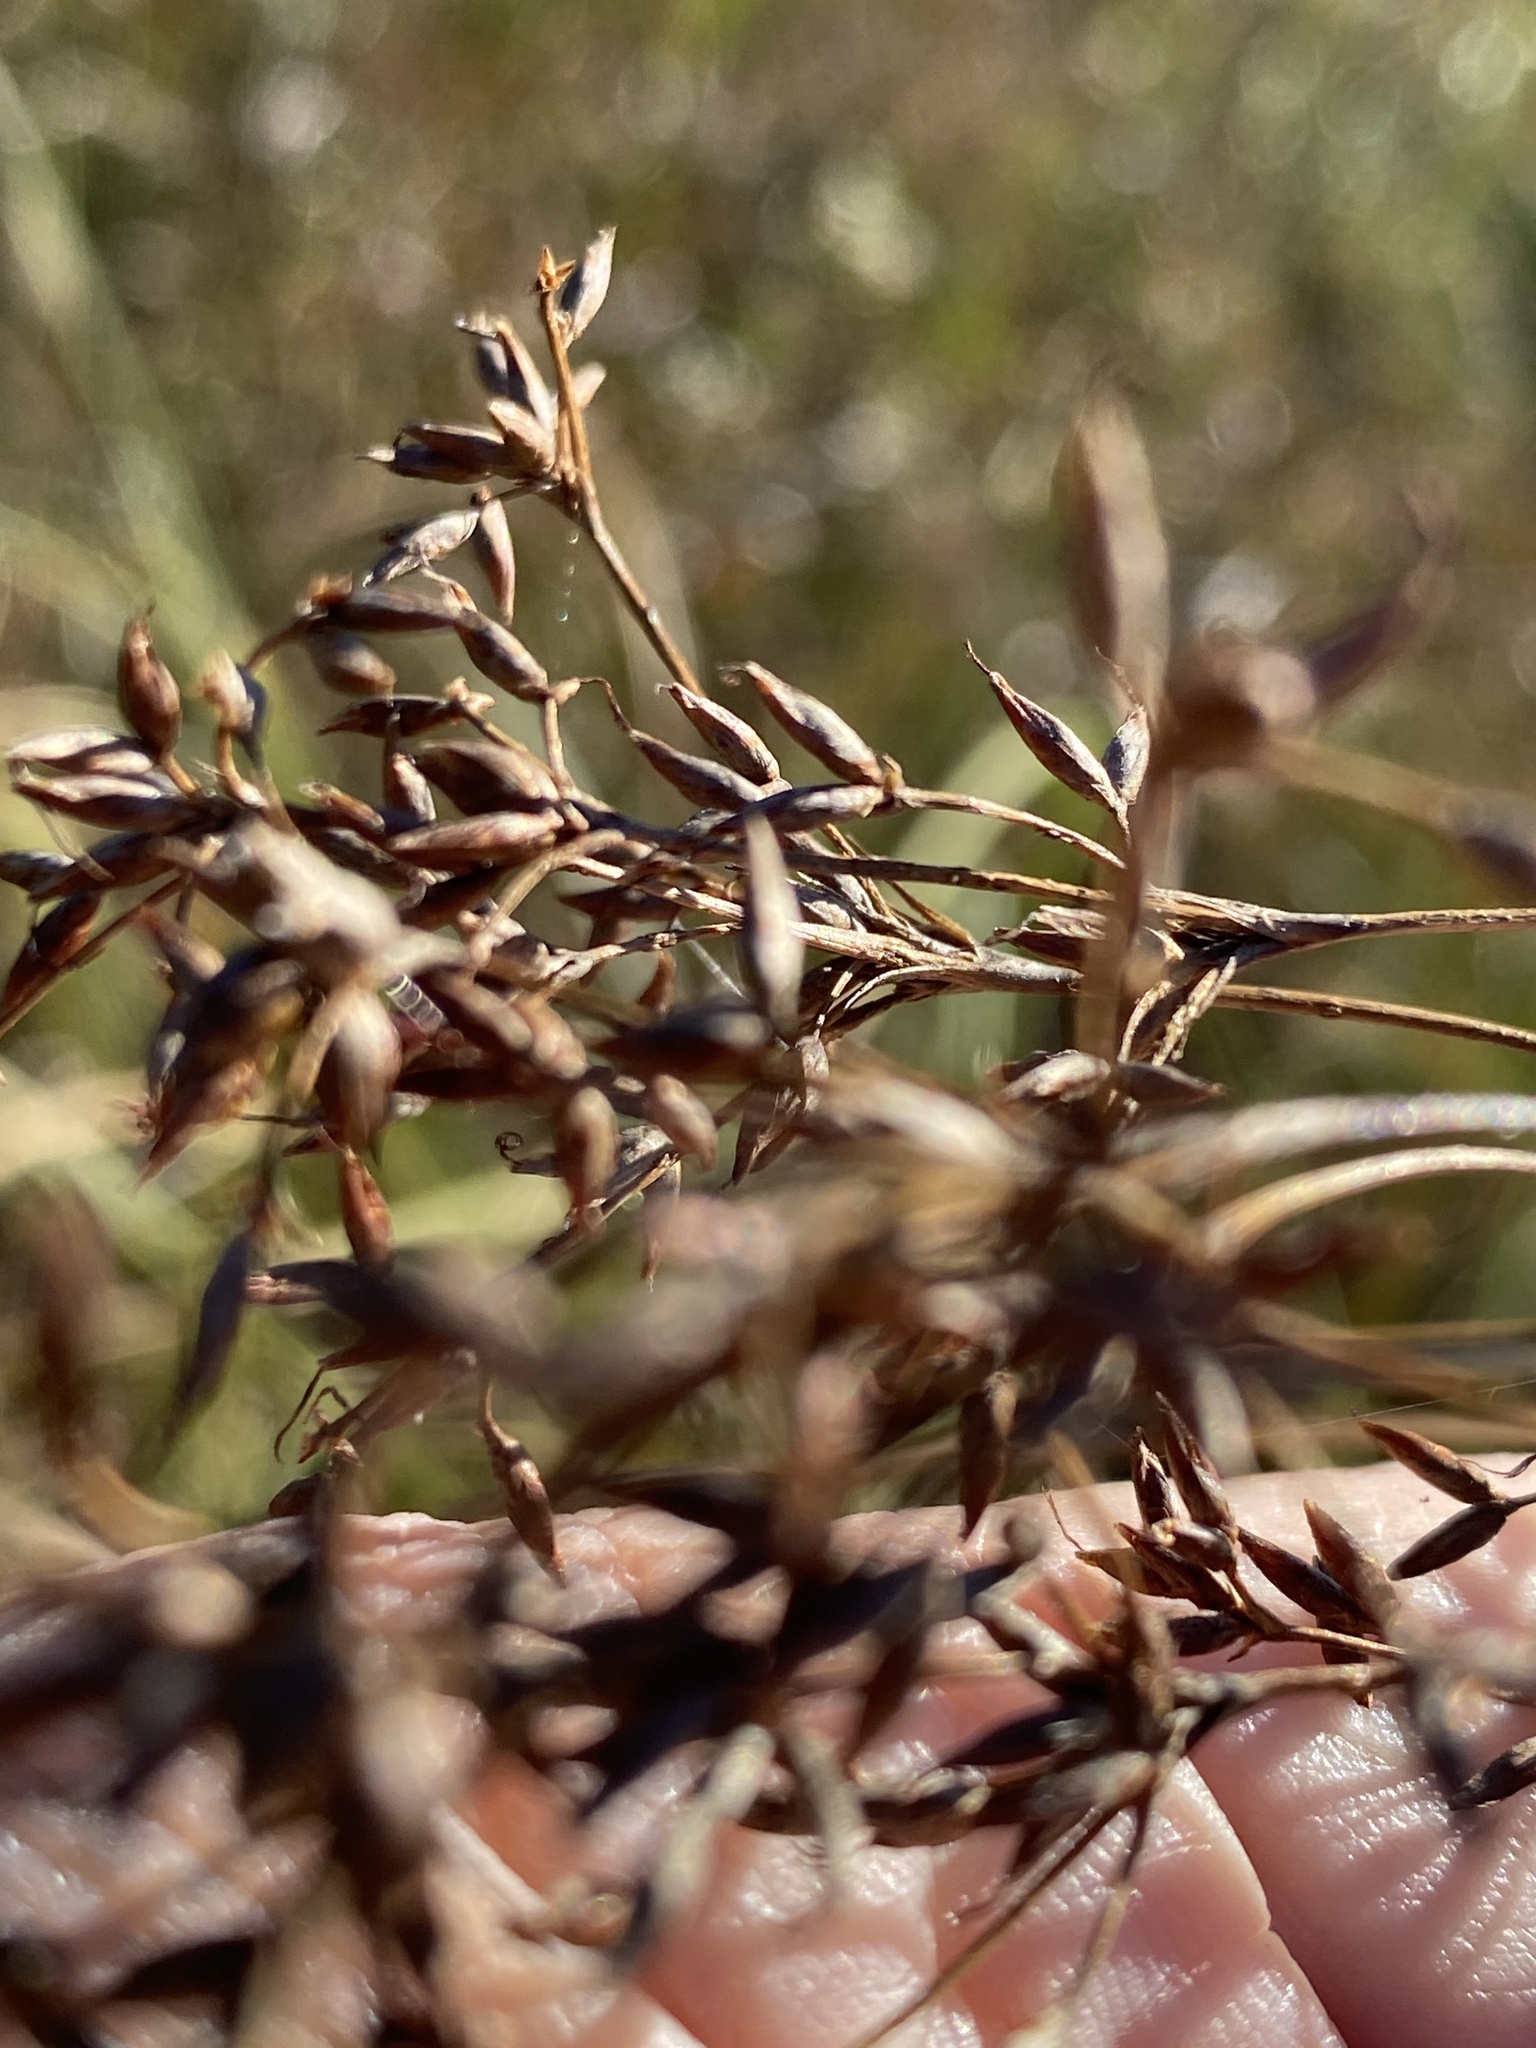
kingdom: Plantae
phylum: Tracheophyta
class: Liliopsida
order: Poales
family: Cyperaceae
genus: Cladium
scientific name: Cladium mariscus
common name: Great fen-sedge
